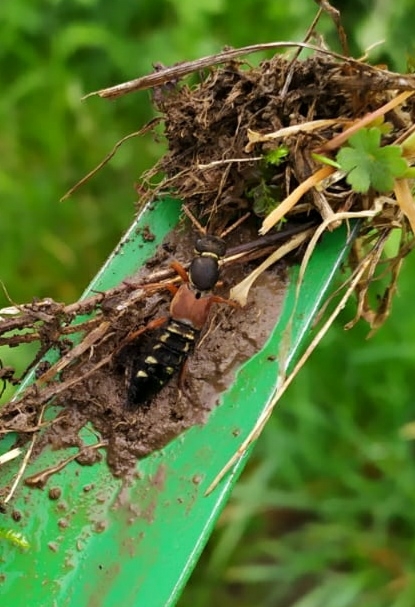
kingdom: Animalia
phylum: Arthropoda
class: Insecta
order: Coleoptera
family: Staphylinidae
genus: Staphylinus
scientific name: Staphylinus caesareus
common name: Staph beetle
